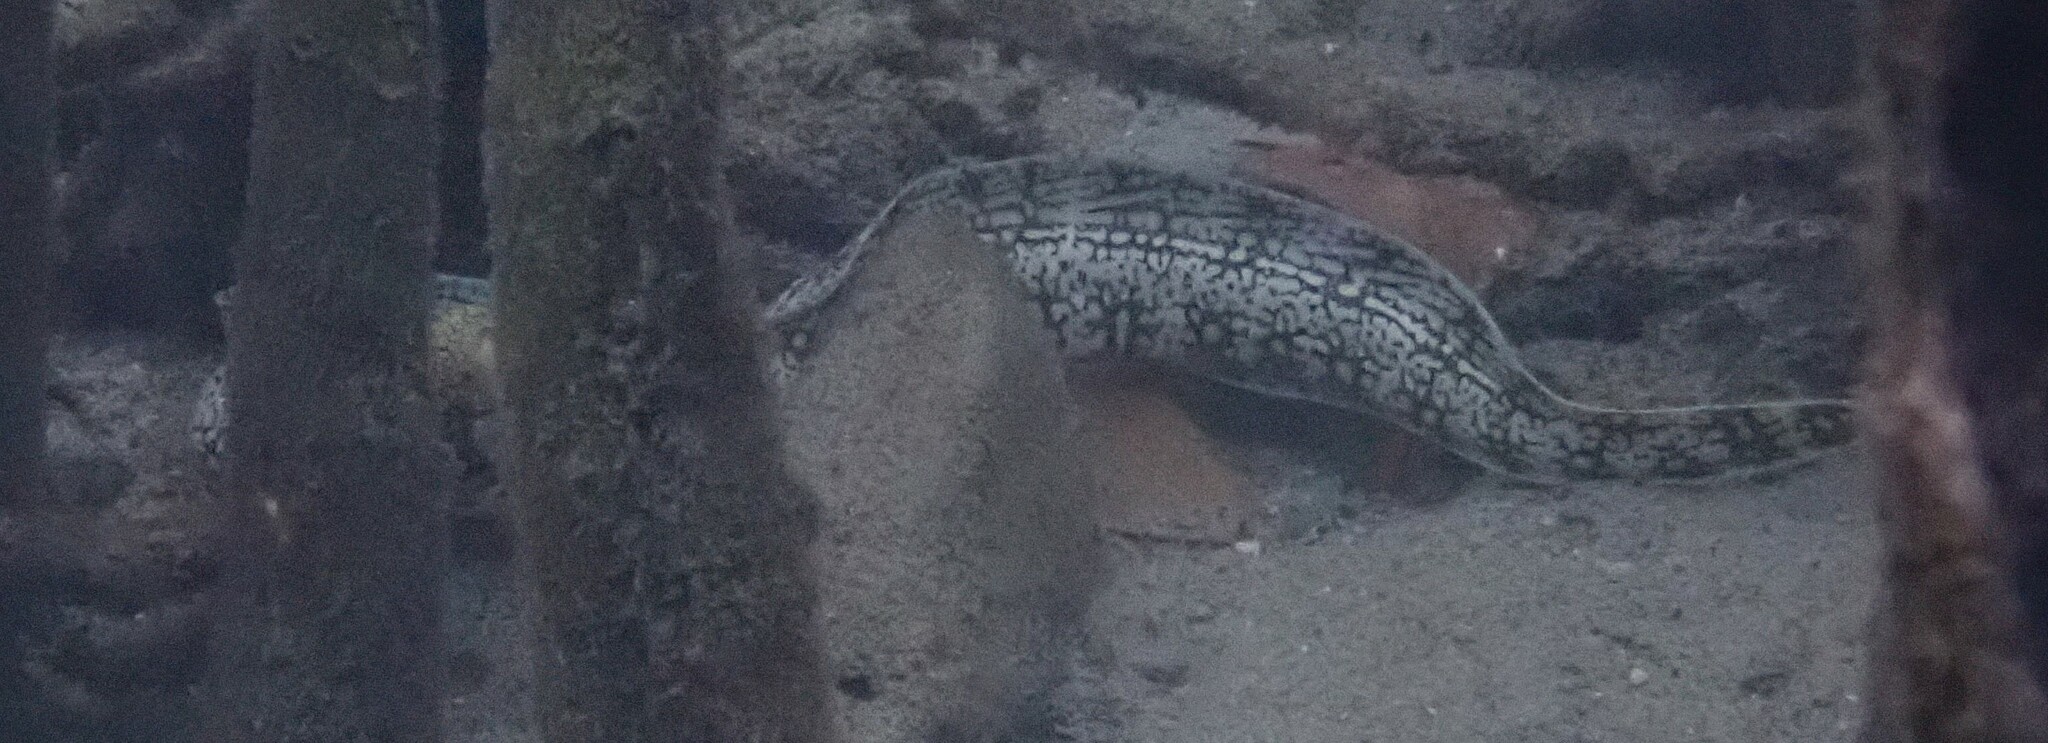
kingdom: Animalia
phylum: Chordata
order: Anguilliformes
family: Muraenidae
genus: Echidna
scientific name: Echidna nebulosa
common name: Snowflake moray
